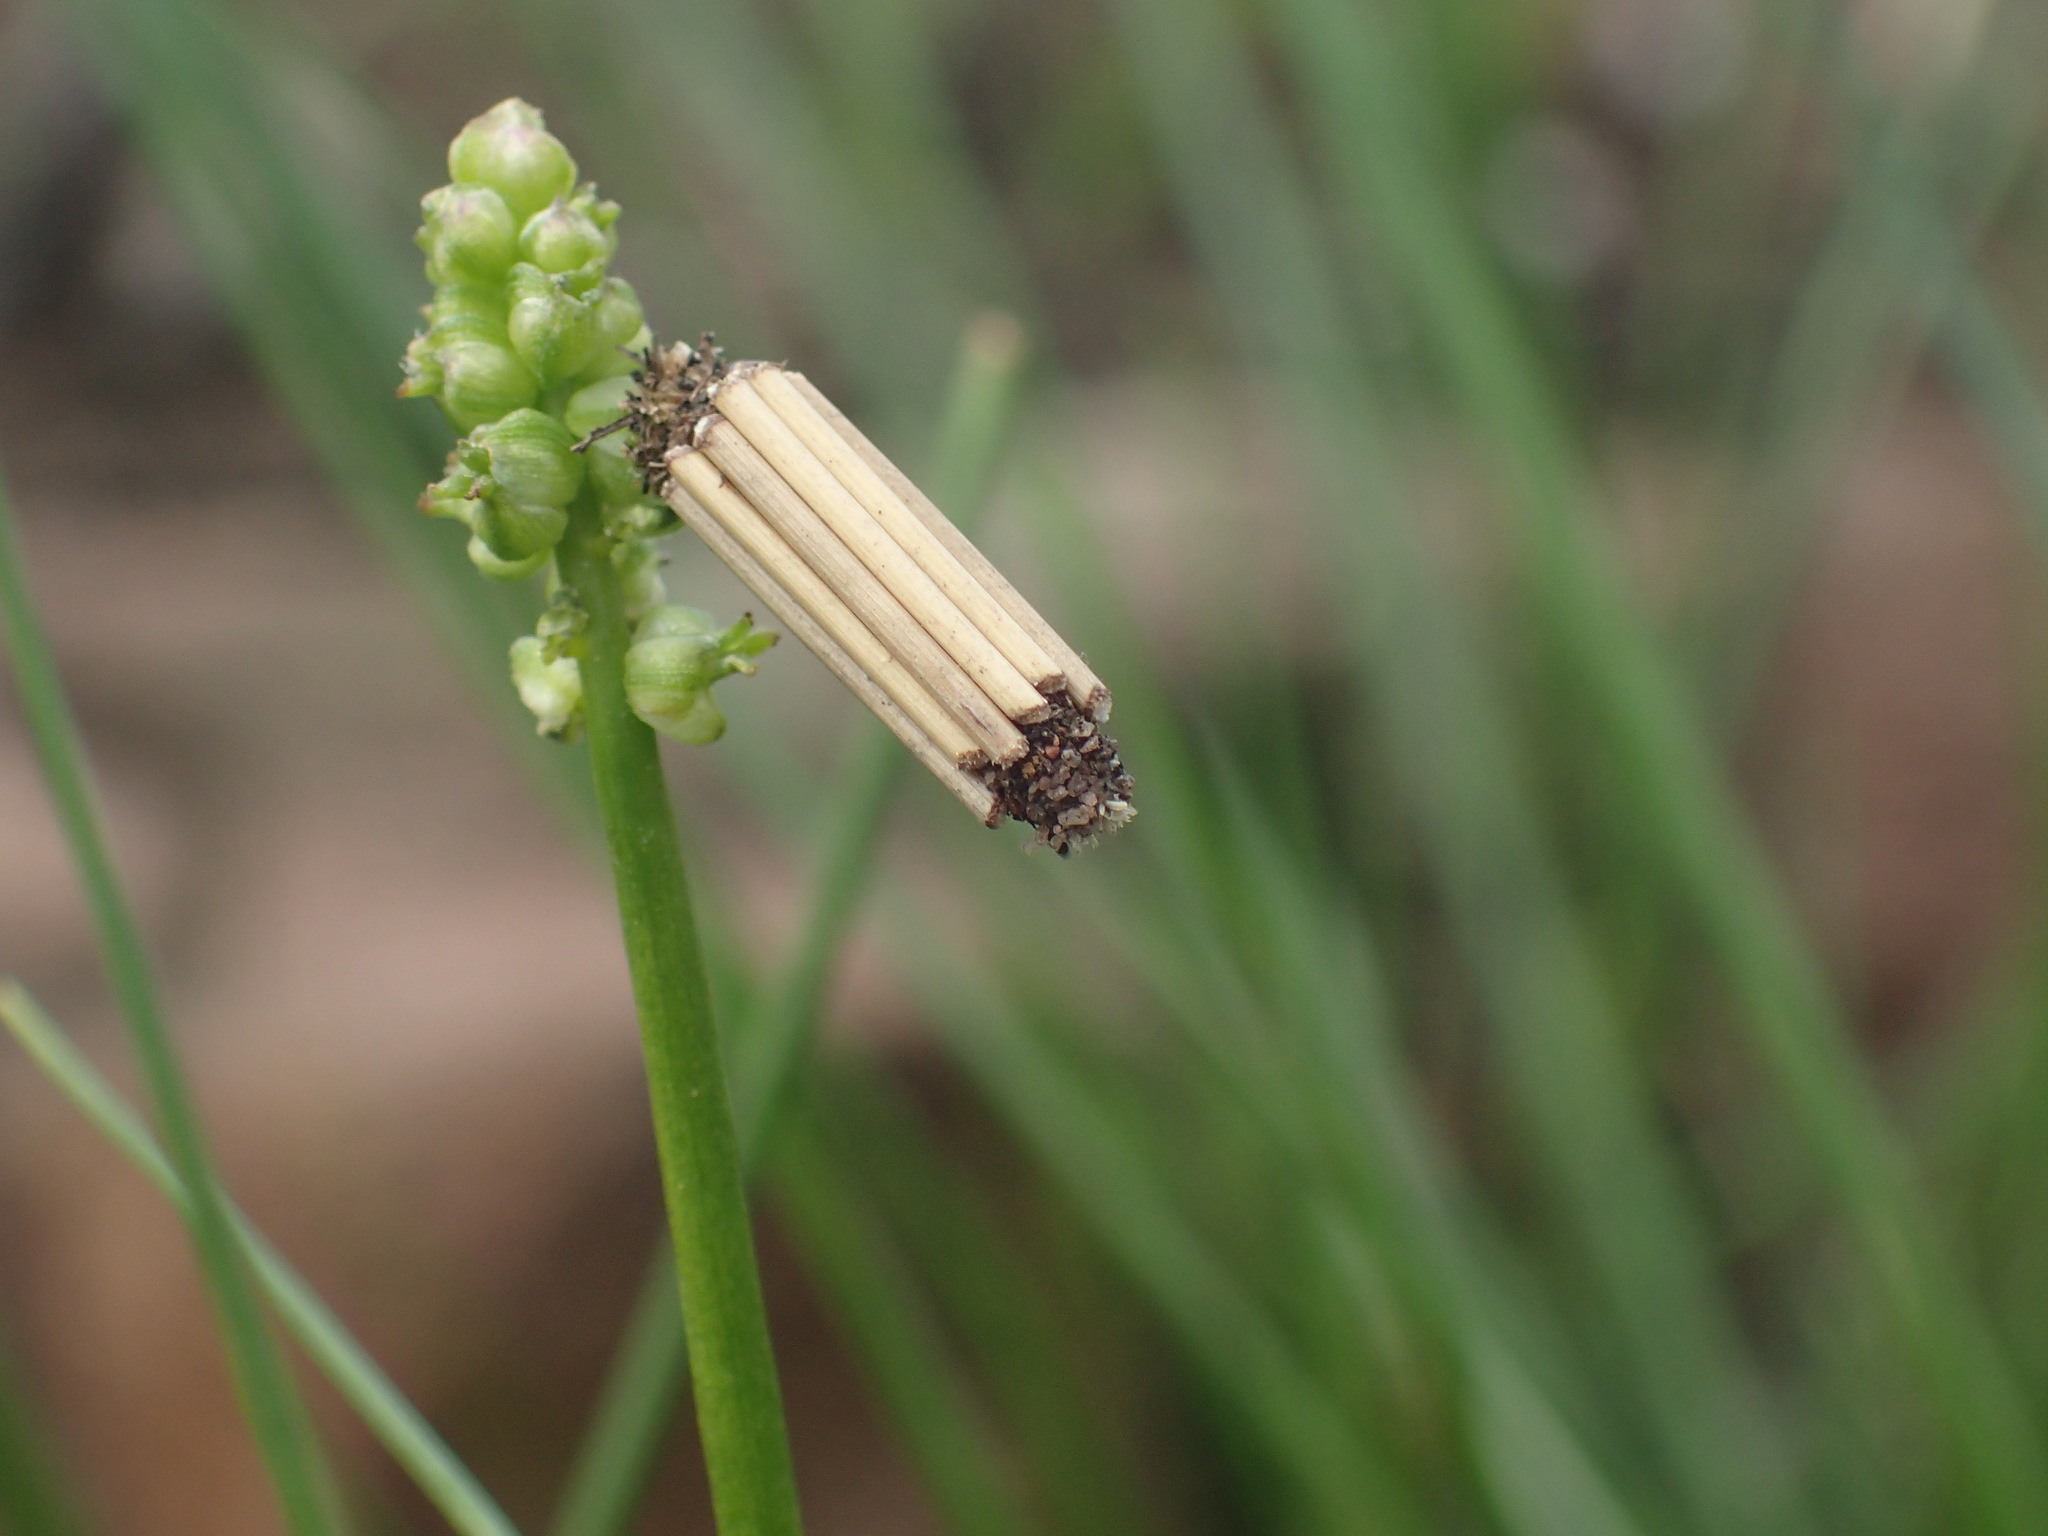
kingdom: Plantae
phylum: Tracheophyta
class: Liliopsida
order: Alismatales
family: Juncaginaceae
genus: Triglochin
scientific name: Triglochin milnei
